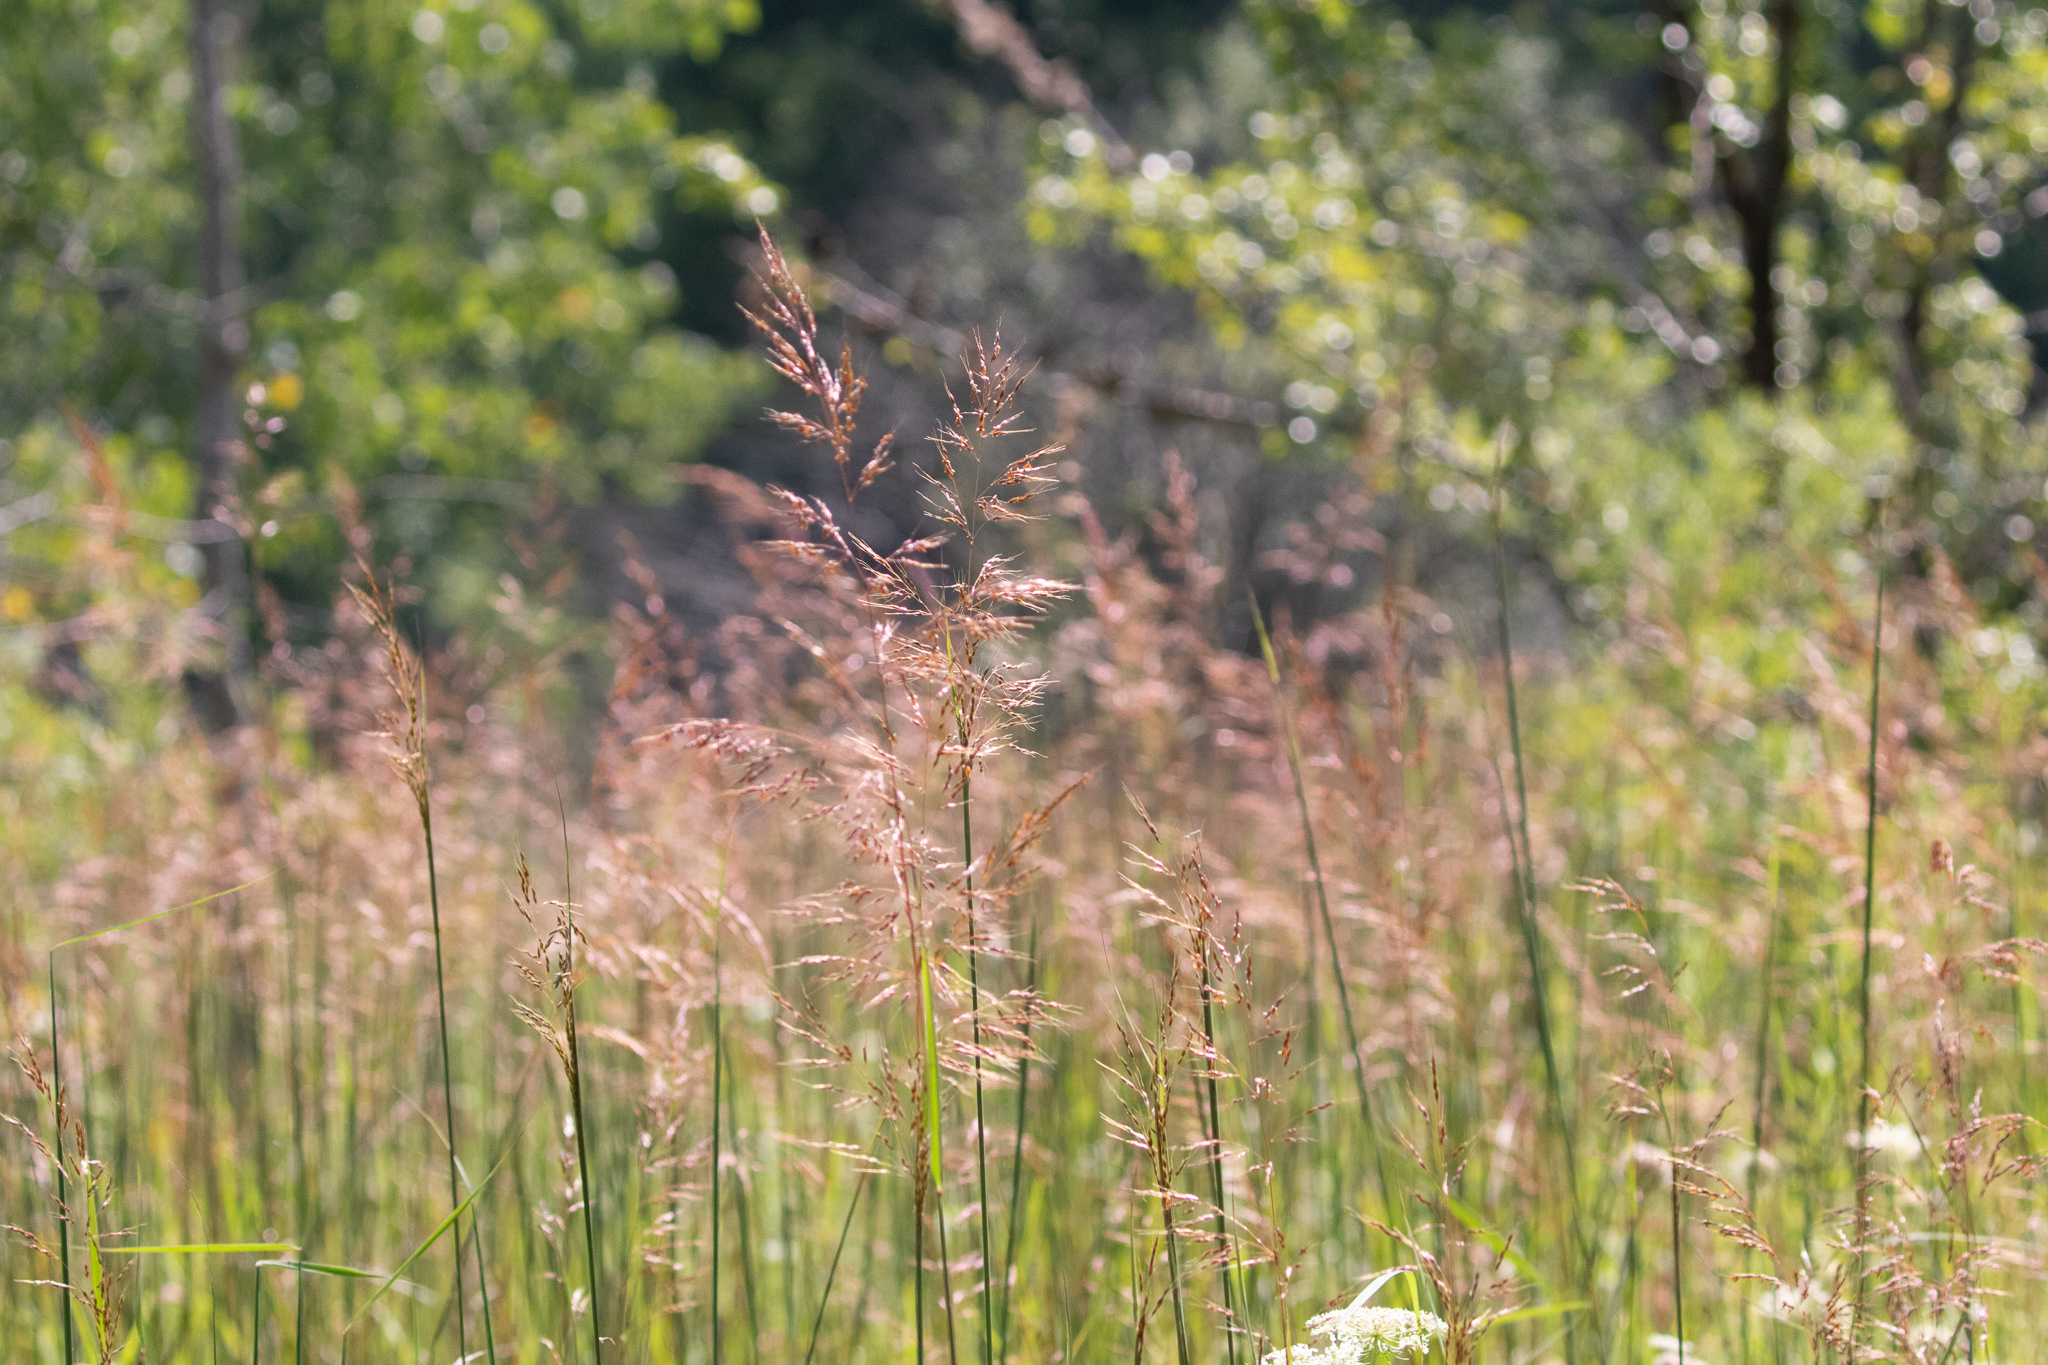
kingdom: Plantae
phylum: Tracheophyta
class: Liliopsida
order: Poales
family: Poaceae
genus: Sorghastrum
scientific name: Sorghastrum nutans
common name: Indian grass
